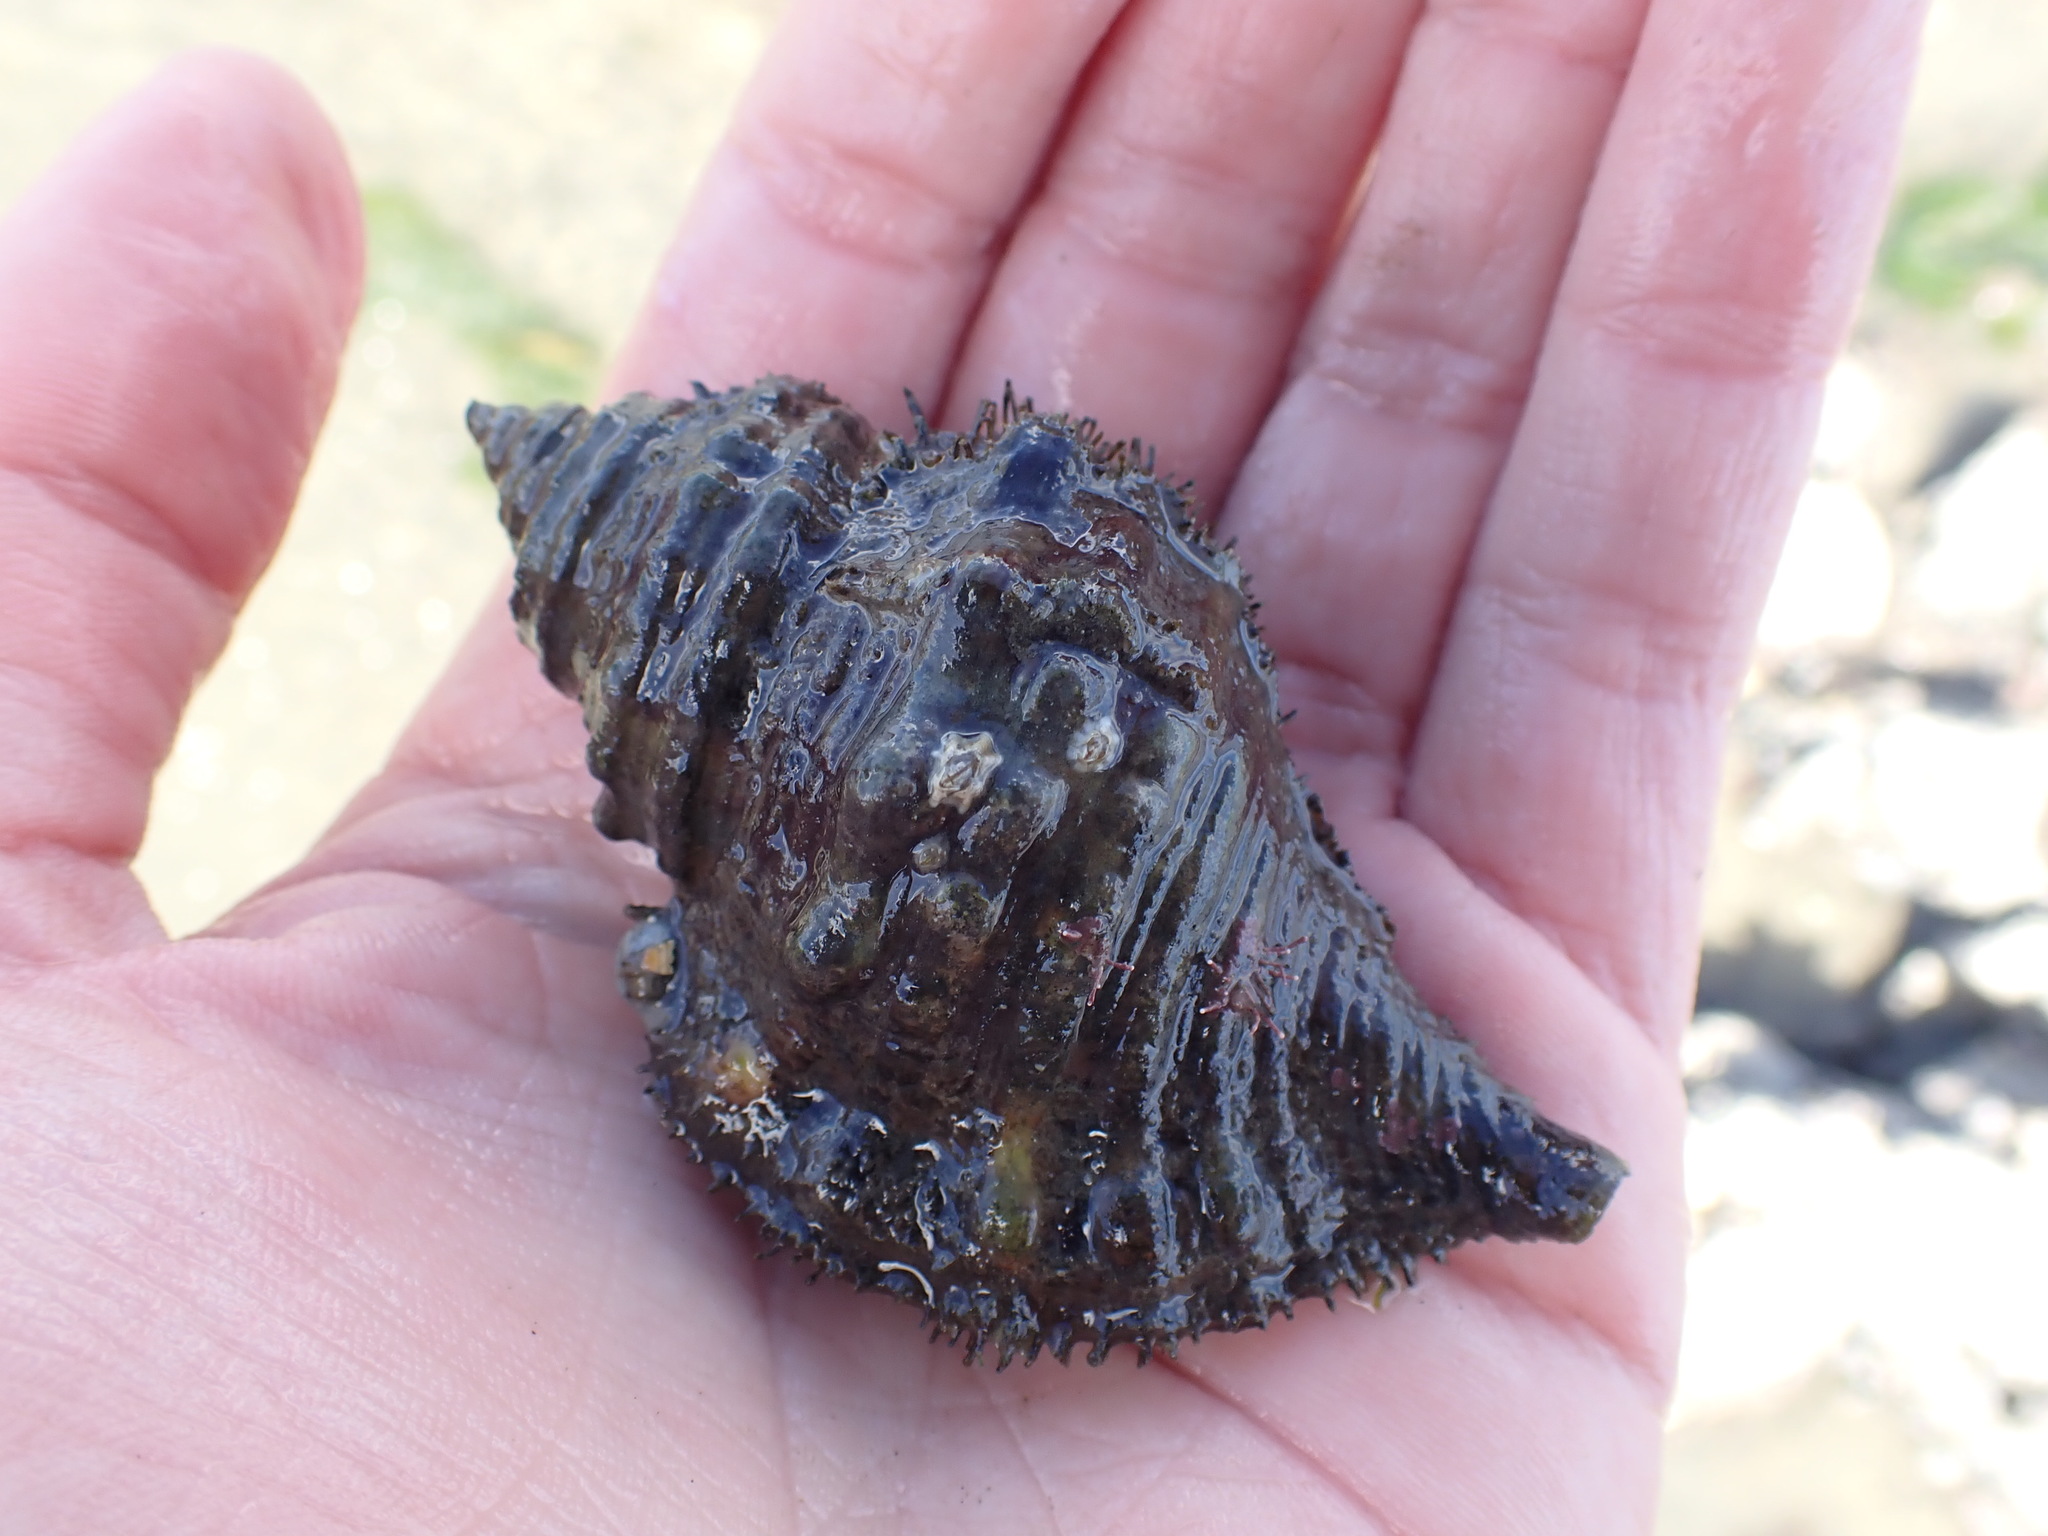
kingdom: Animalia
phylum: Mollusca
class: Gastropoda
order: Littorinimorpha
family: Cymatiidae
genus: Monoplex
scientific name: Monoplex parthenopeus
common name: Giant triton
